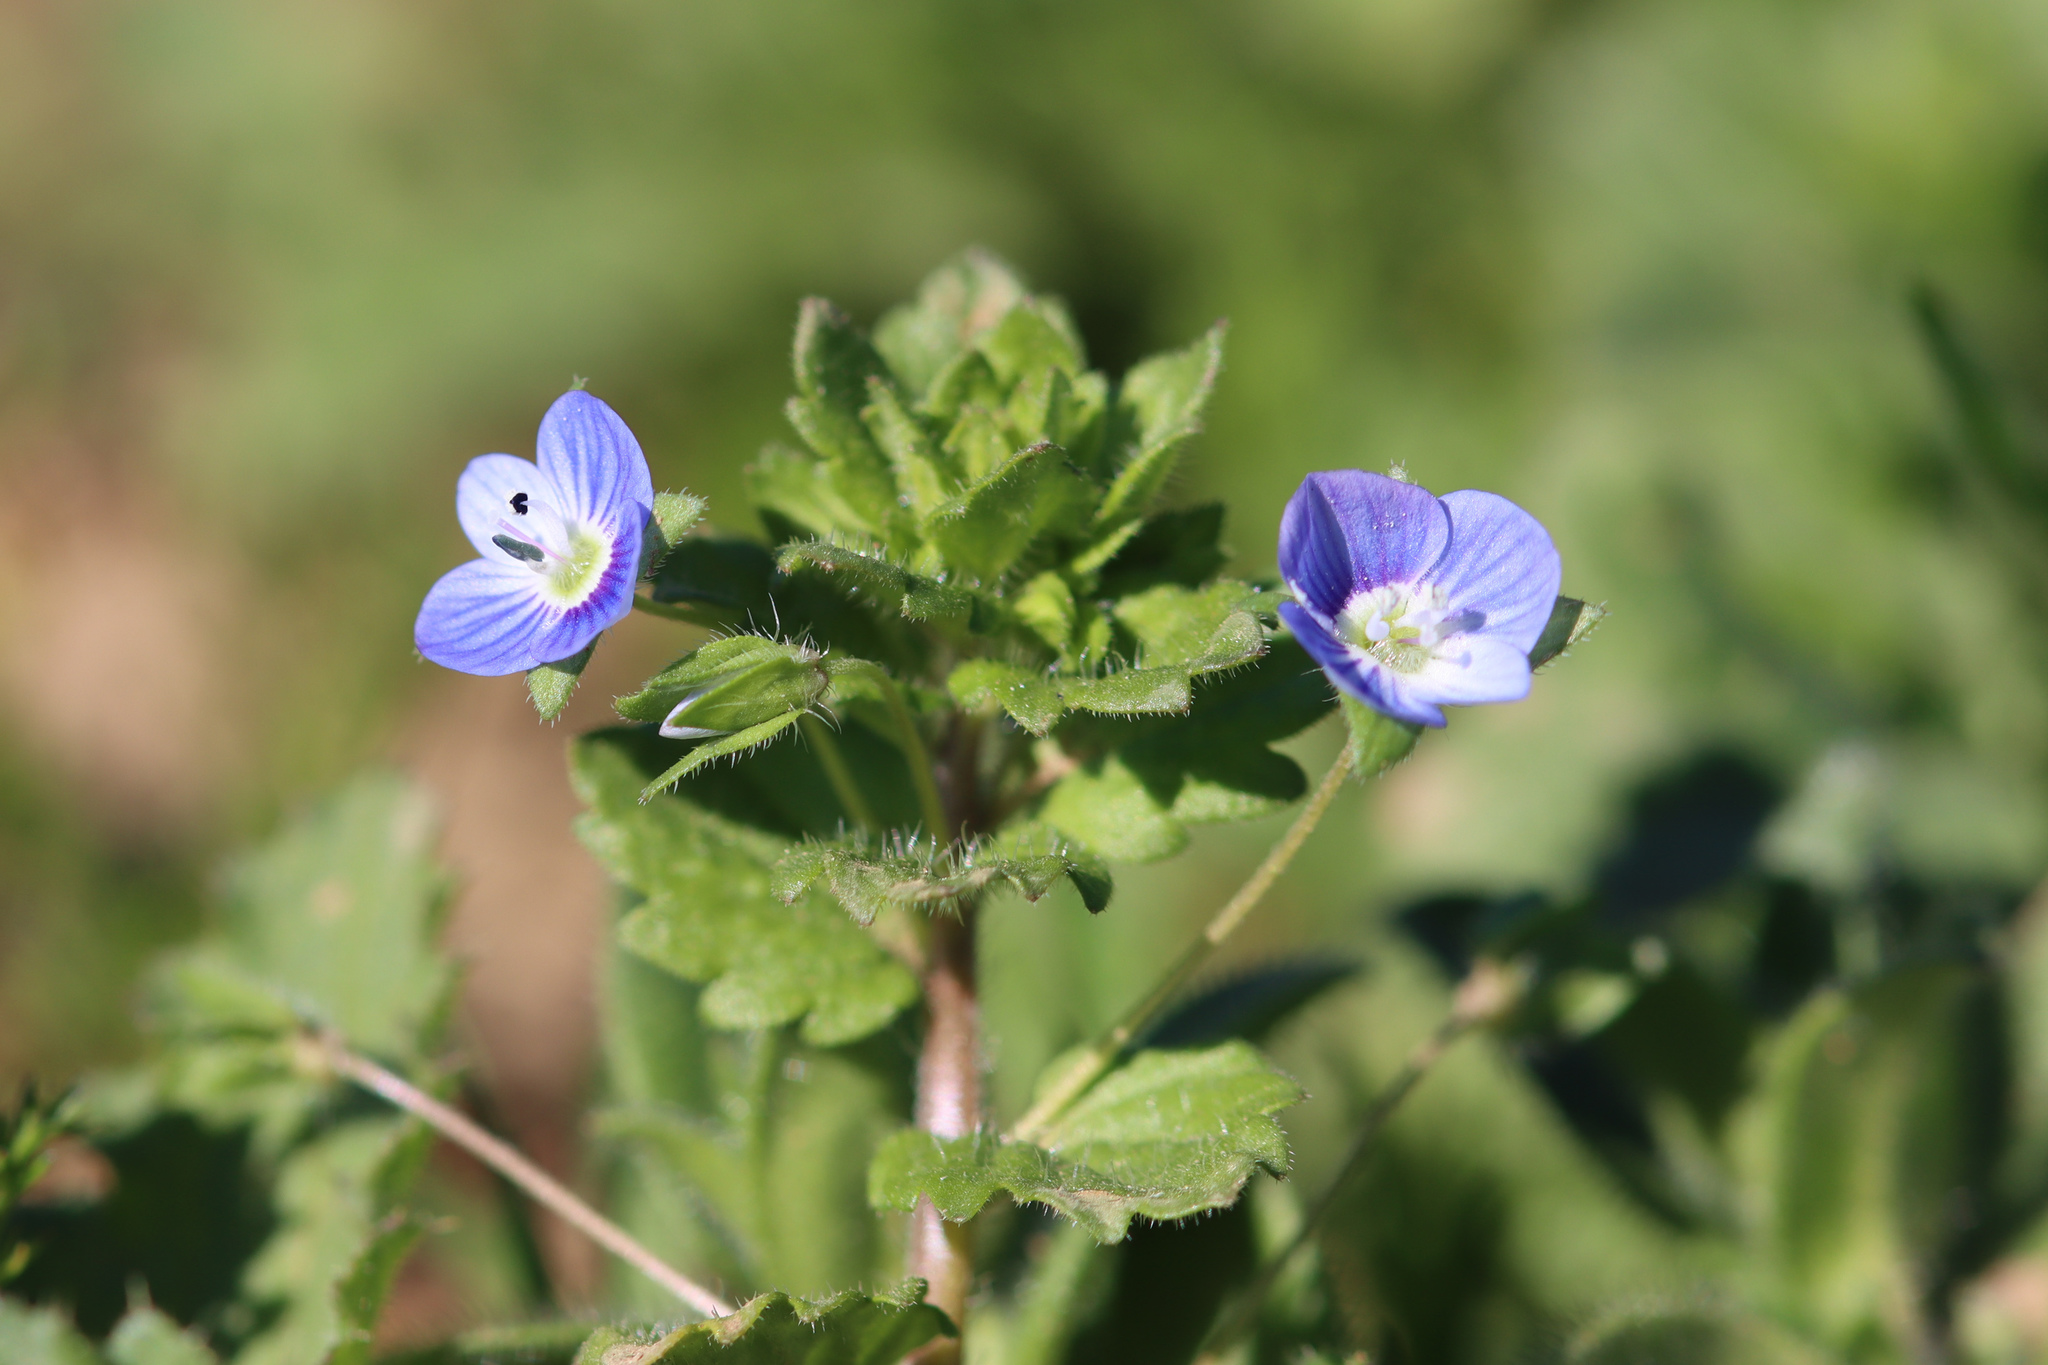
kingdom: Plantae
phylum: Tracheophyta
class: Magnoliopsida
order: Lamiales
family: Plantaginaceae
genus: Veronica
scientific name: Veronica persica
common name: Common field-speedwell
